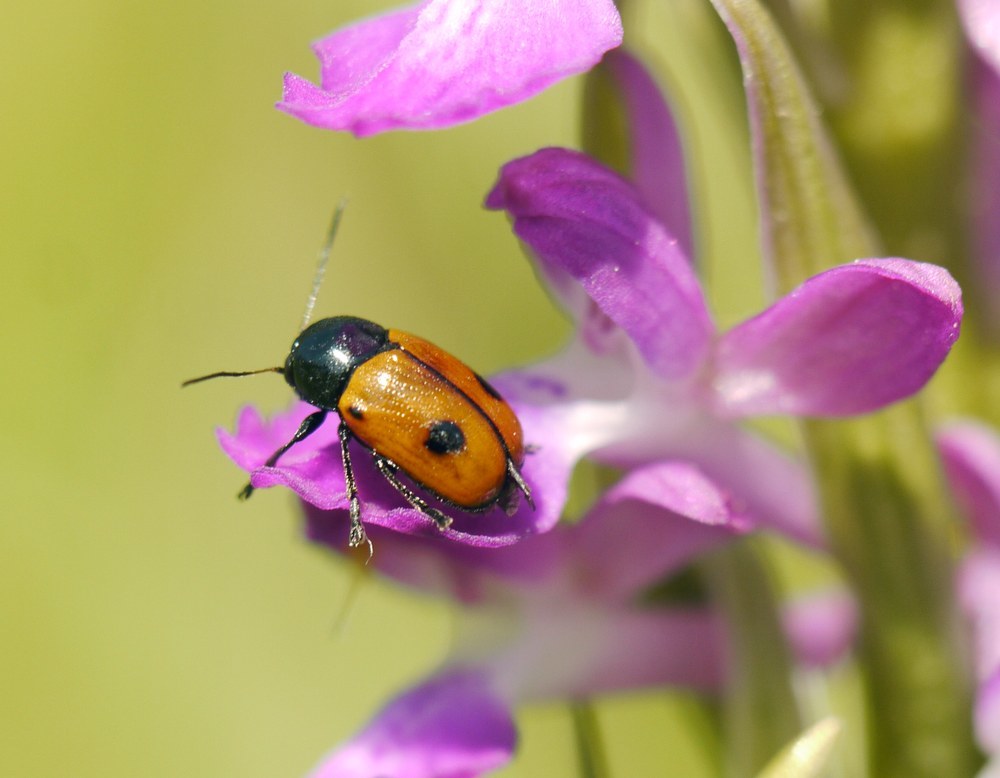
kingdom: Animalia
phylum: Arthropoda
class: Insecta
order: Coleoptera
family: Chrysomelidae
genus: Chiridopsis
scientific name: Chiridopsis bipunctata
